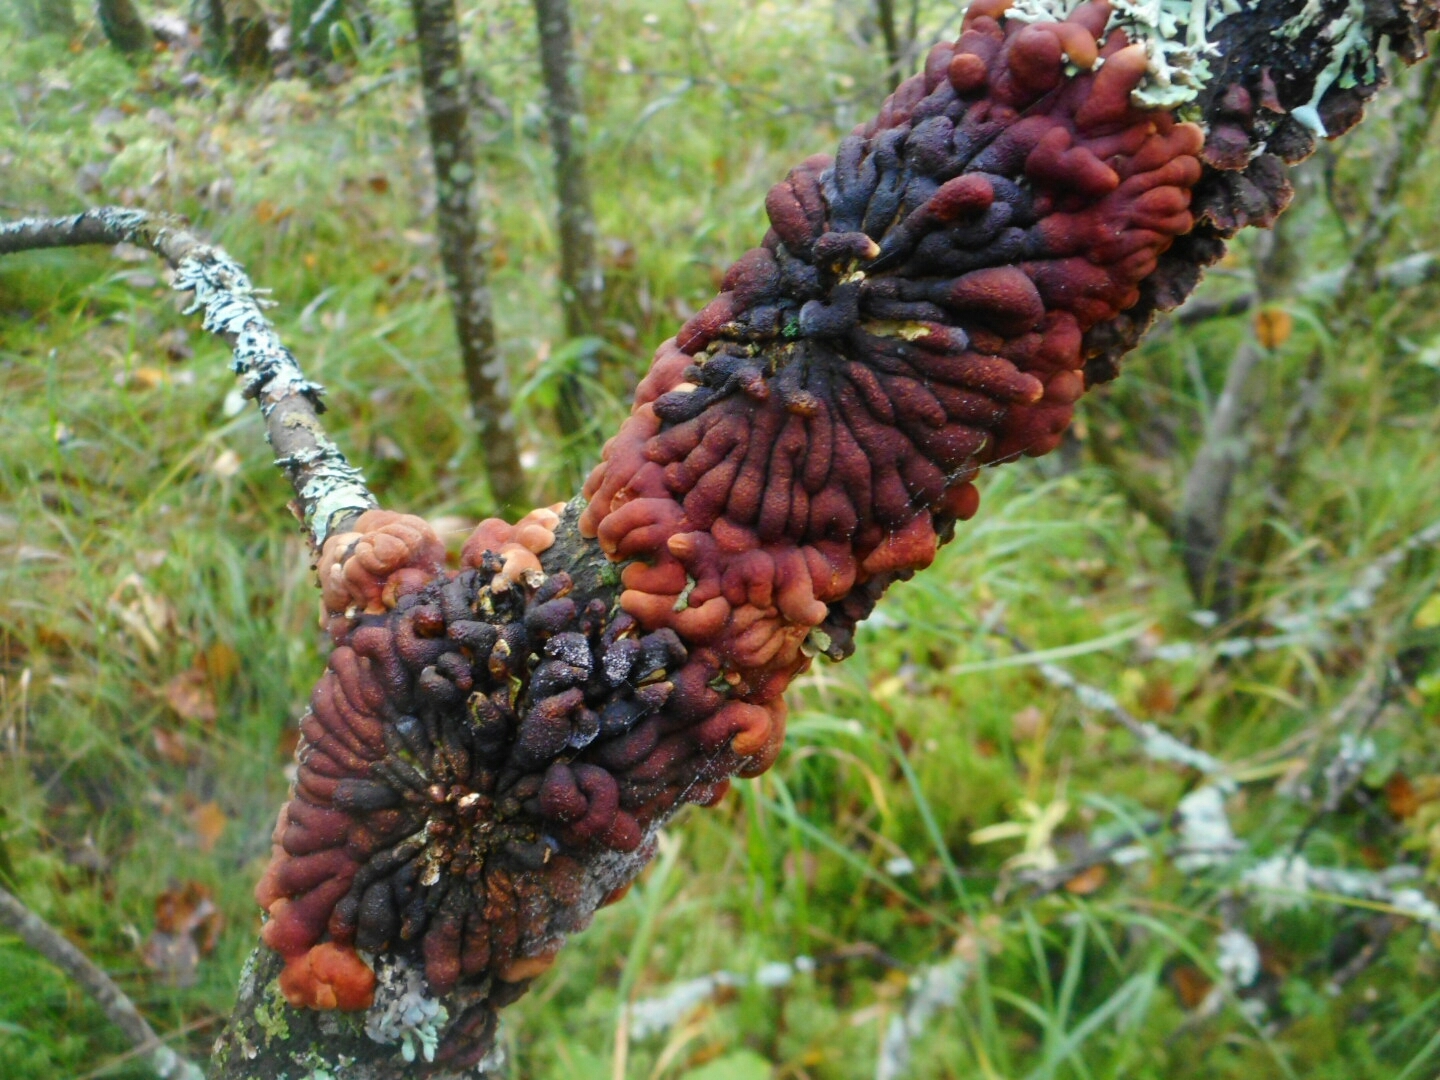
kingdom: Fungi
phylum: Ascomycota
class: Sordariomycetes
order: Hypocreales
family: Hypocreaceae
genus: Hypocreopsis
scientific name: Hypocreopsis lichenoides
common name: Willow gloves
